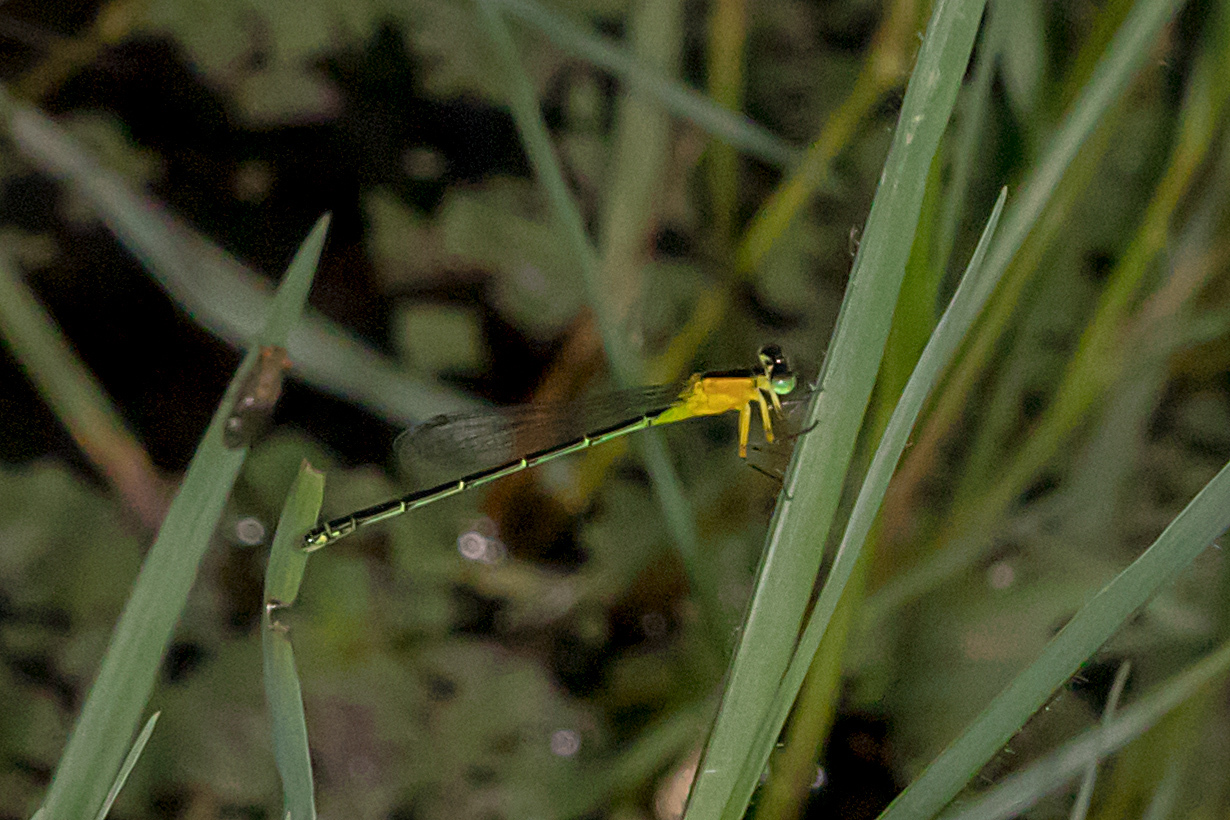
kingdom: Animalia
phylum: Arthropoda
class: Insecta
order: Odonata
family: Coenagrionidae
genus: Ischnura
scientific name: Ischnura pruinescens
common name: Colourful bluetail
